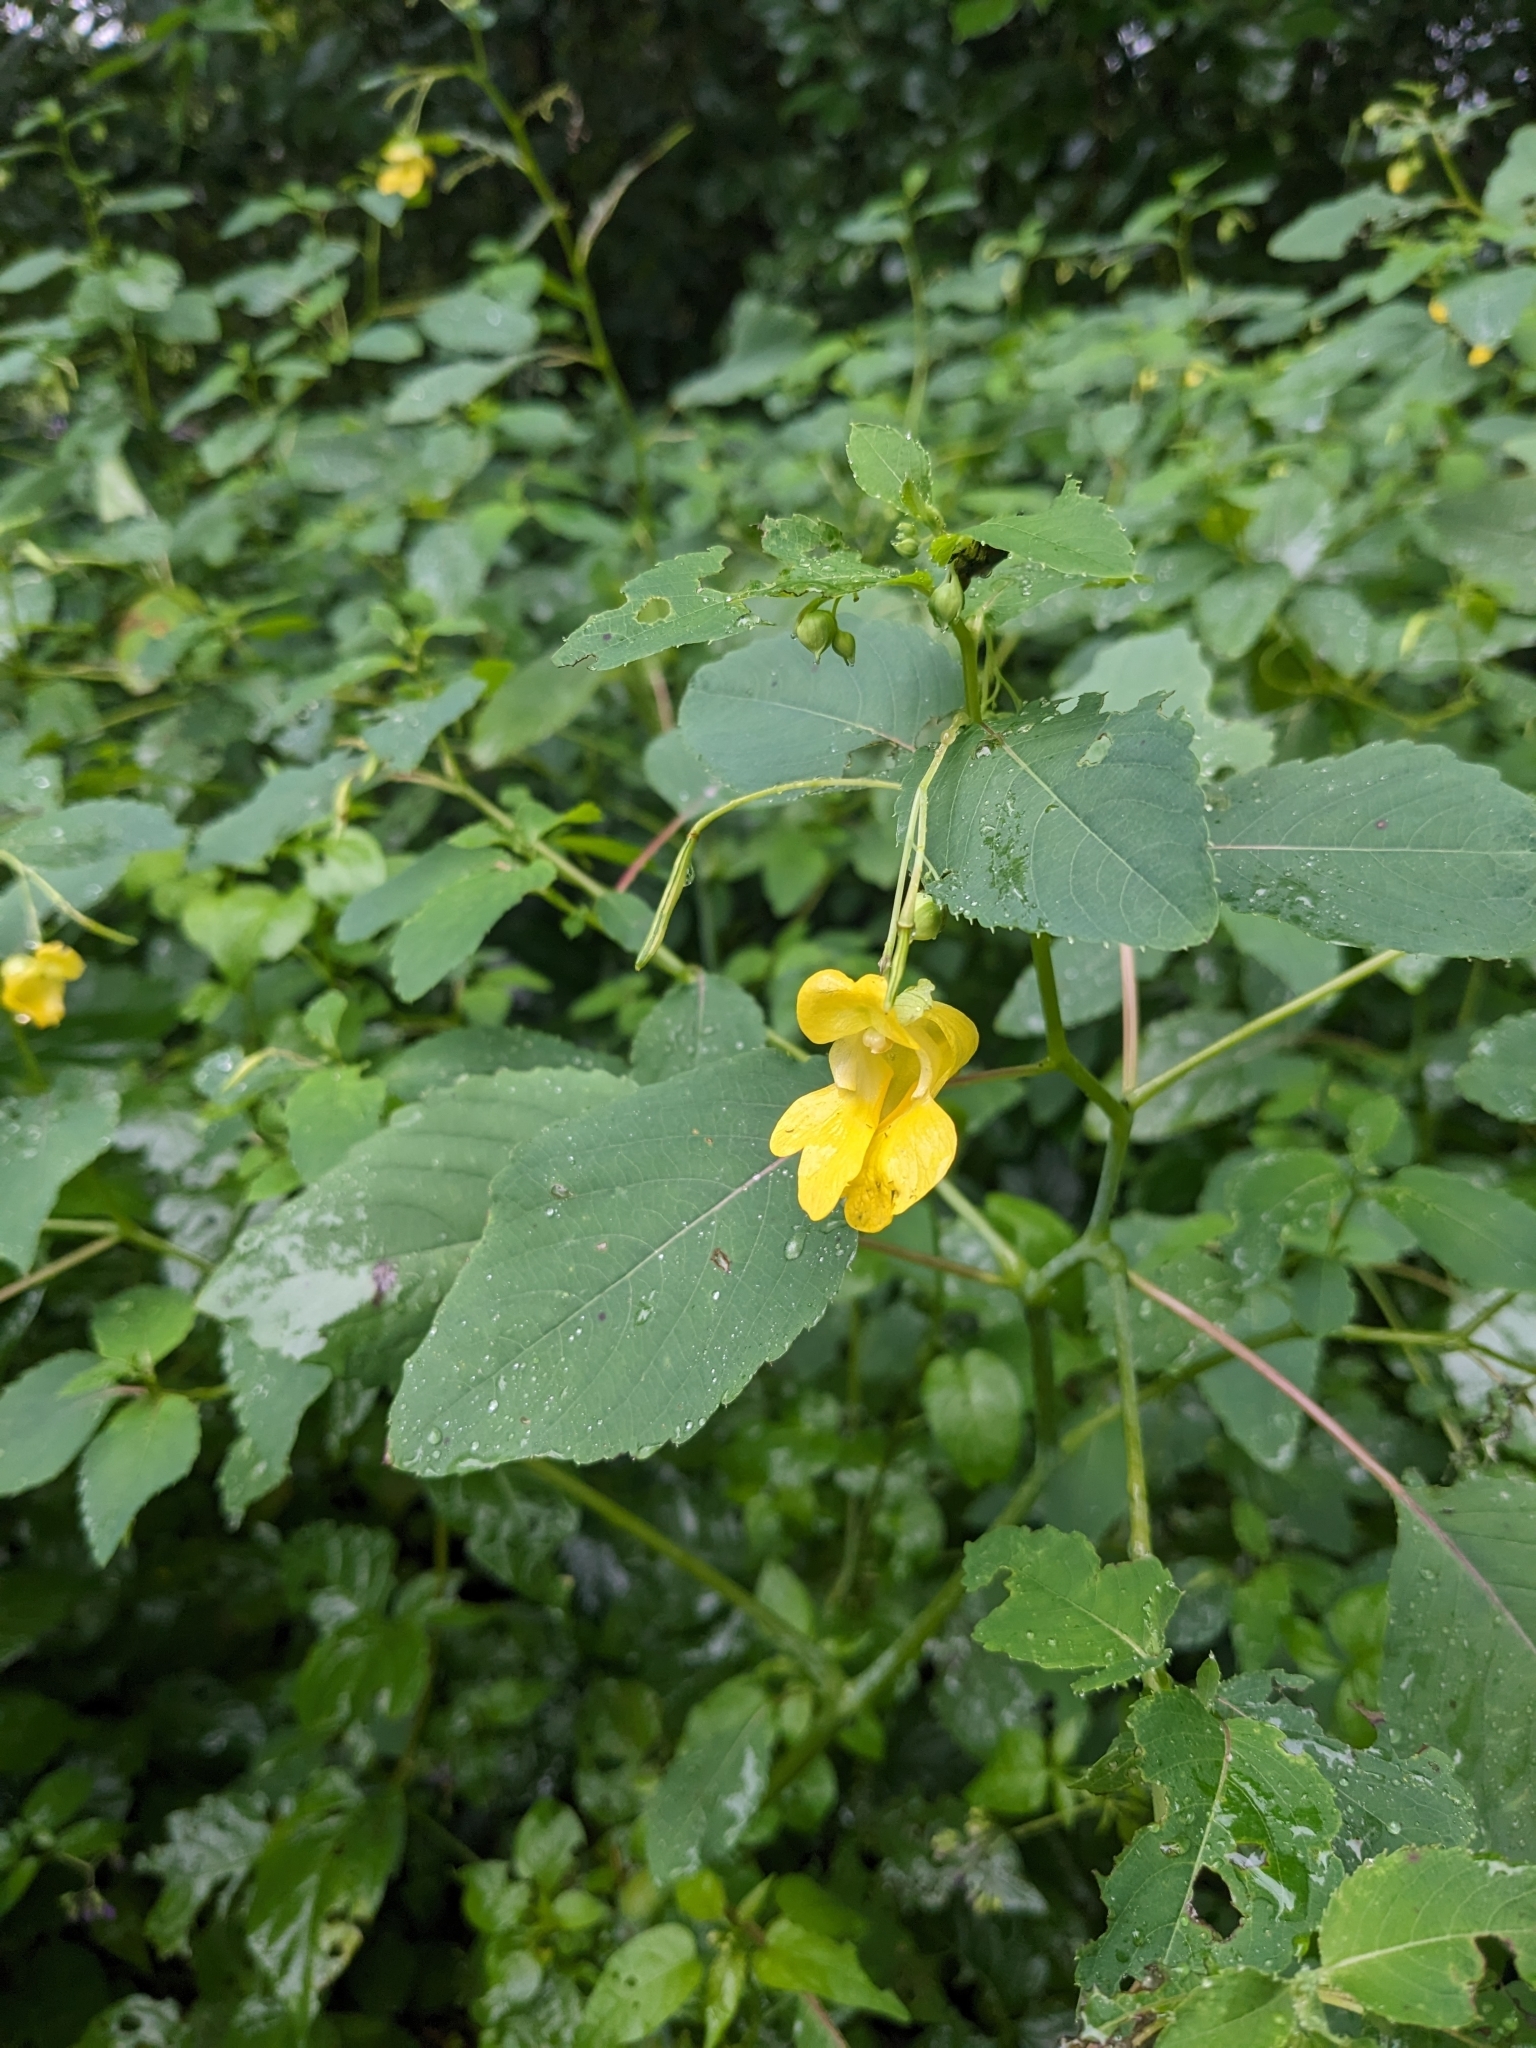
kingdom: Plantae
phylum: Tracheophyta
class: Magnoliopsida
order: Ericales
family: Balsaminaceae
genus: Impatiens
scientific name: Impatiens pallida
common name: Pale snapweed
